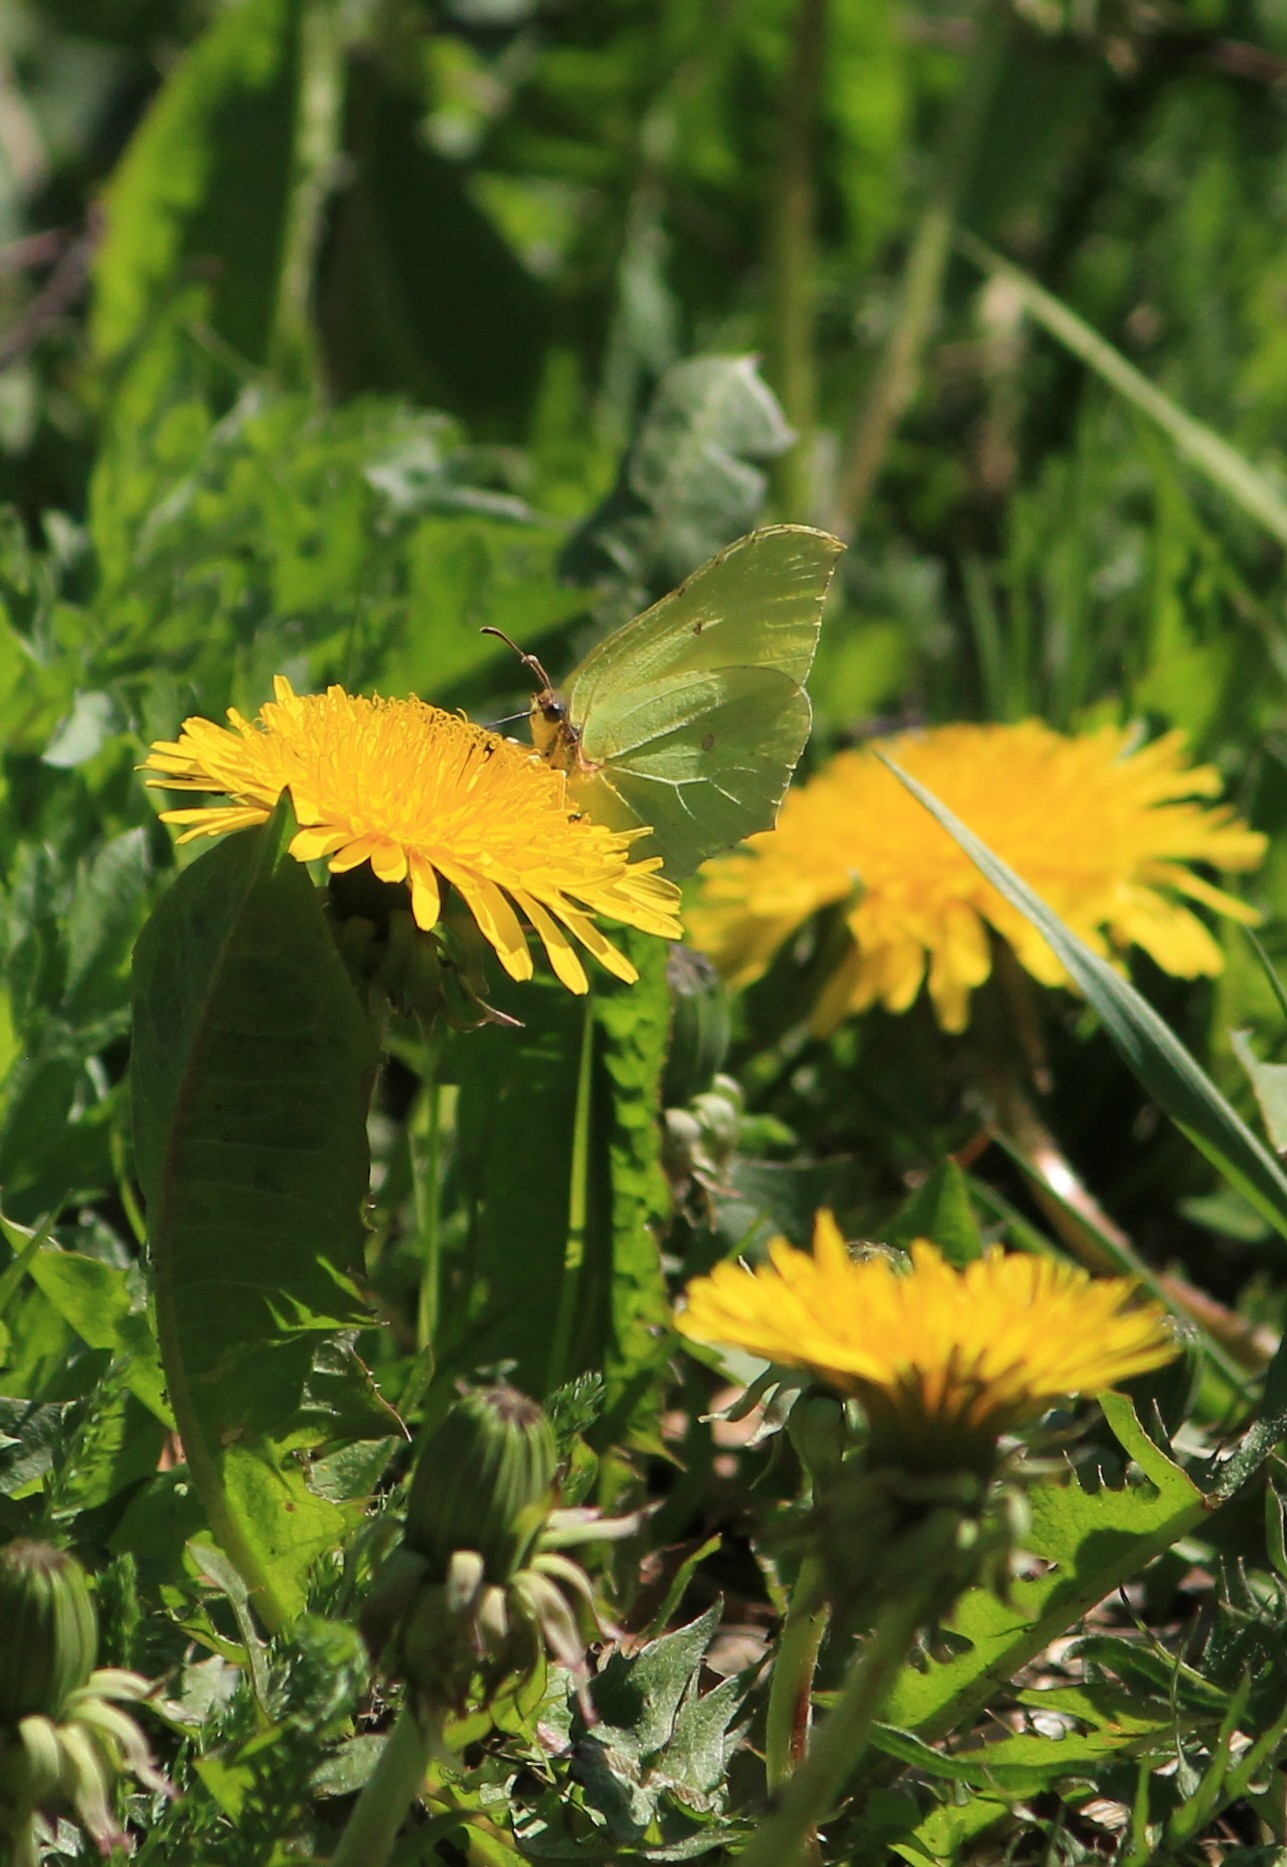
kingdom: Animalia
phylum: Arthropoda
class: Insecta
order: Lepidoptera
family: Pieridae
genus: Gonepteryx
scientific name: Gonepteryx rhamni
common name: Brimstone
